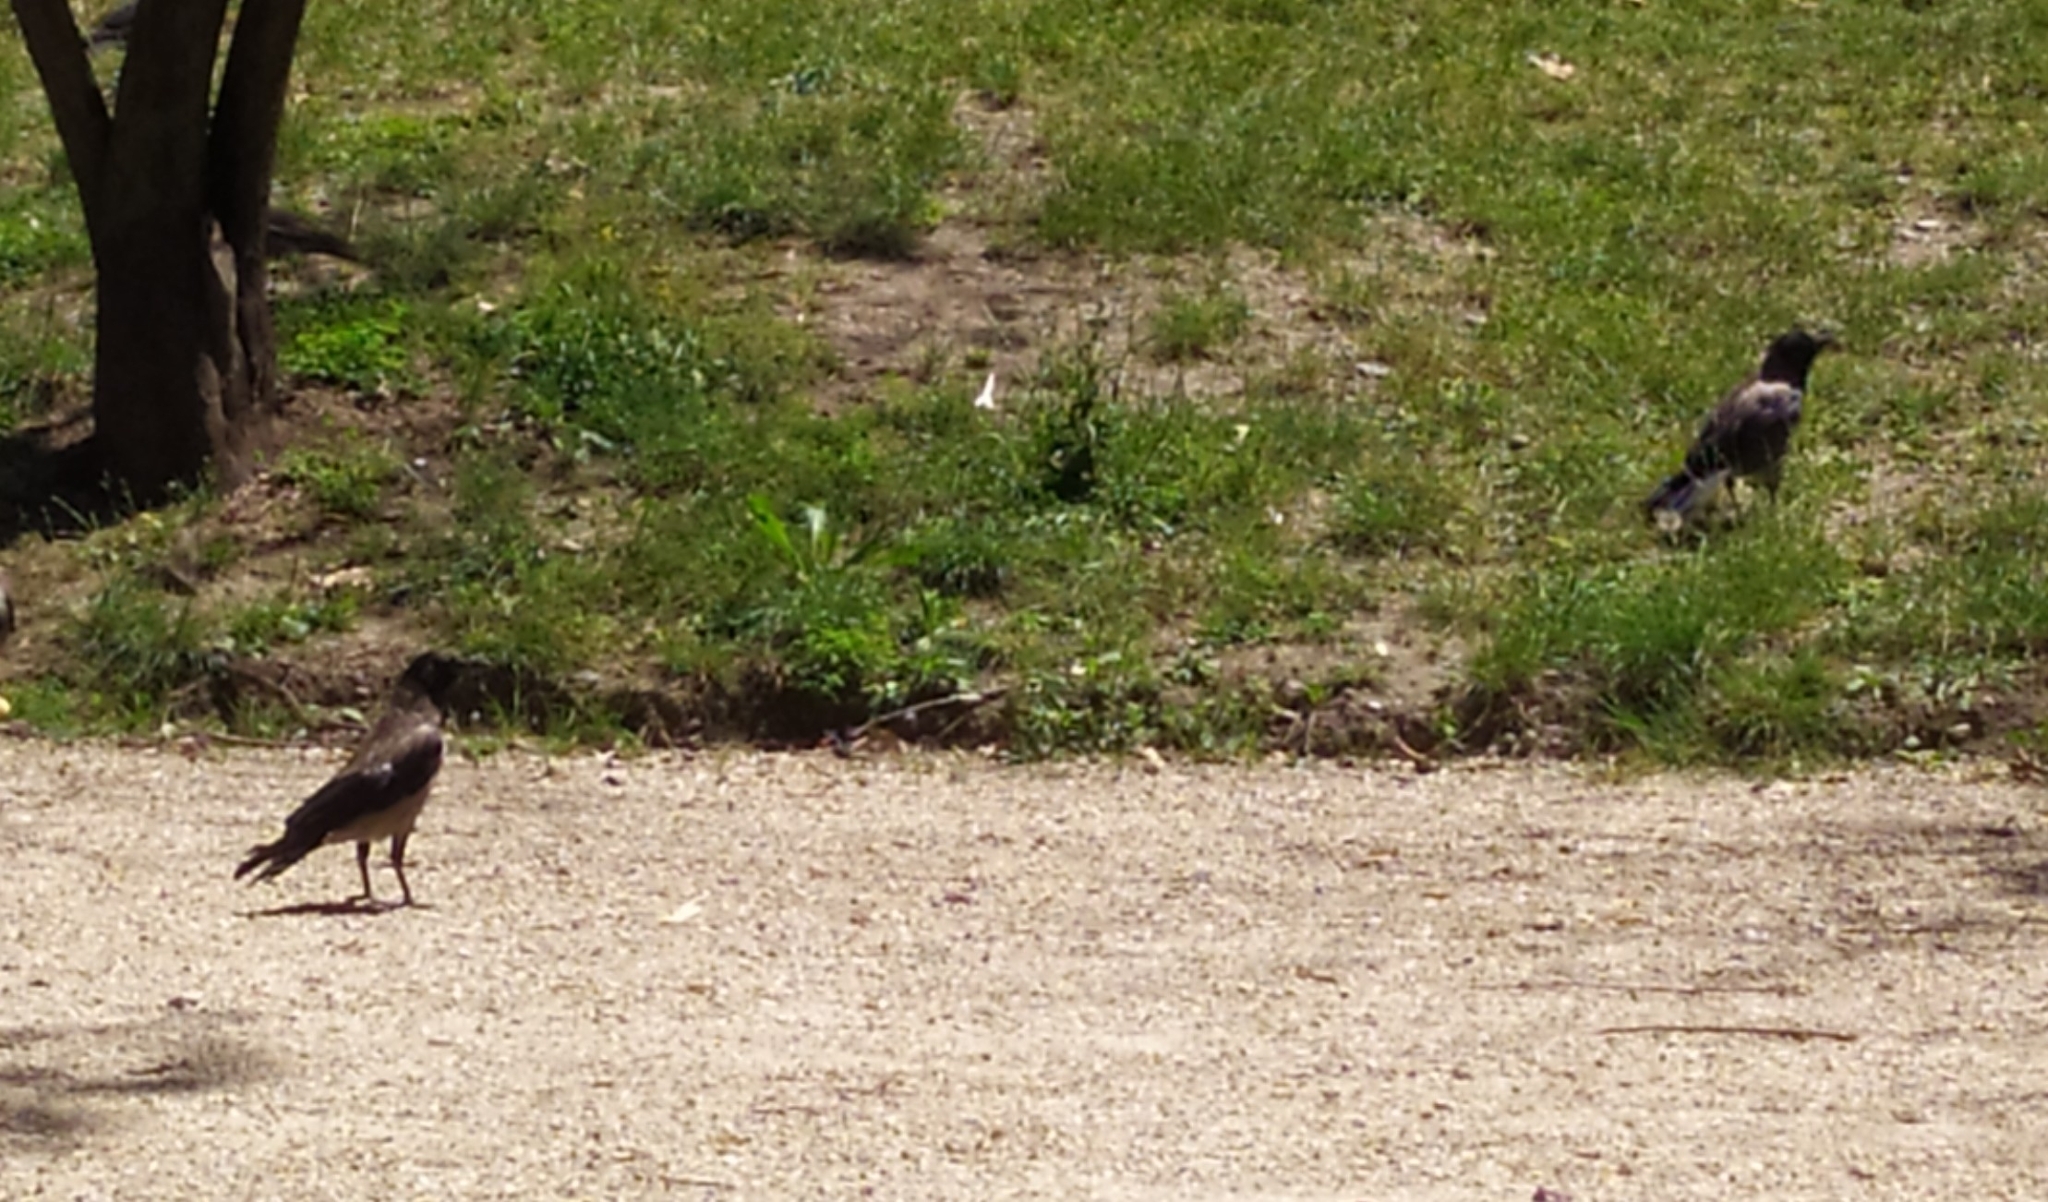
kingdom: Animalia
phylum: Chordata
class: Aves
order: Passeriformes
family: Corvidae
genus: Corvus
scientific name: Corvus cornix
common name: Hooded crow
